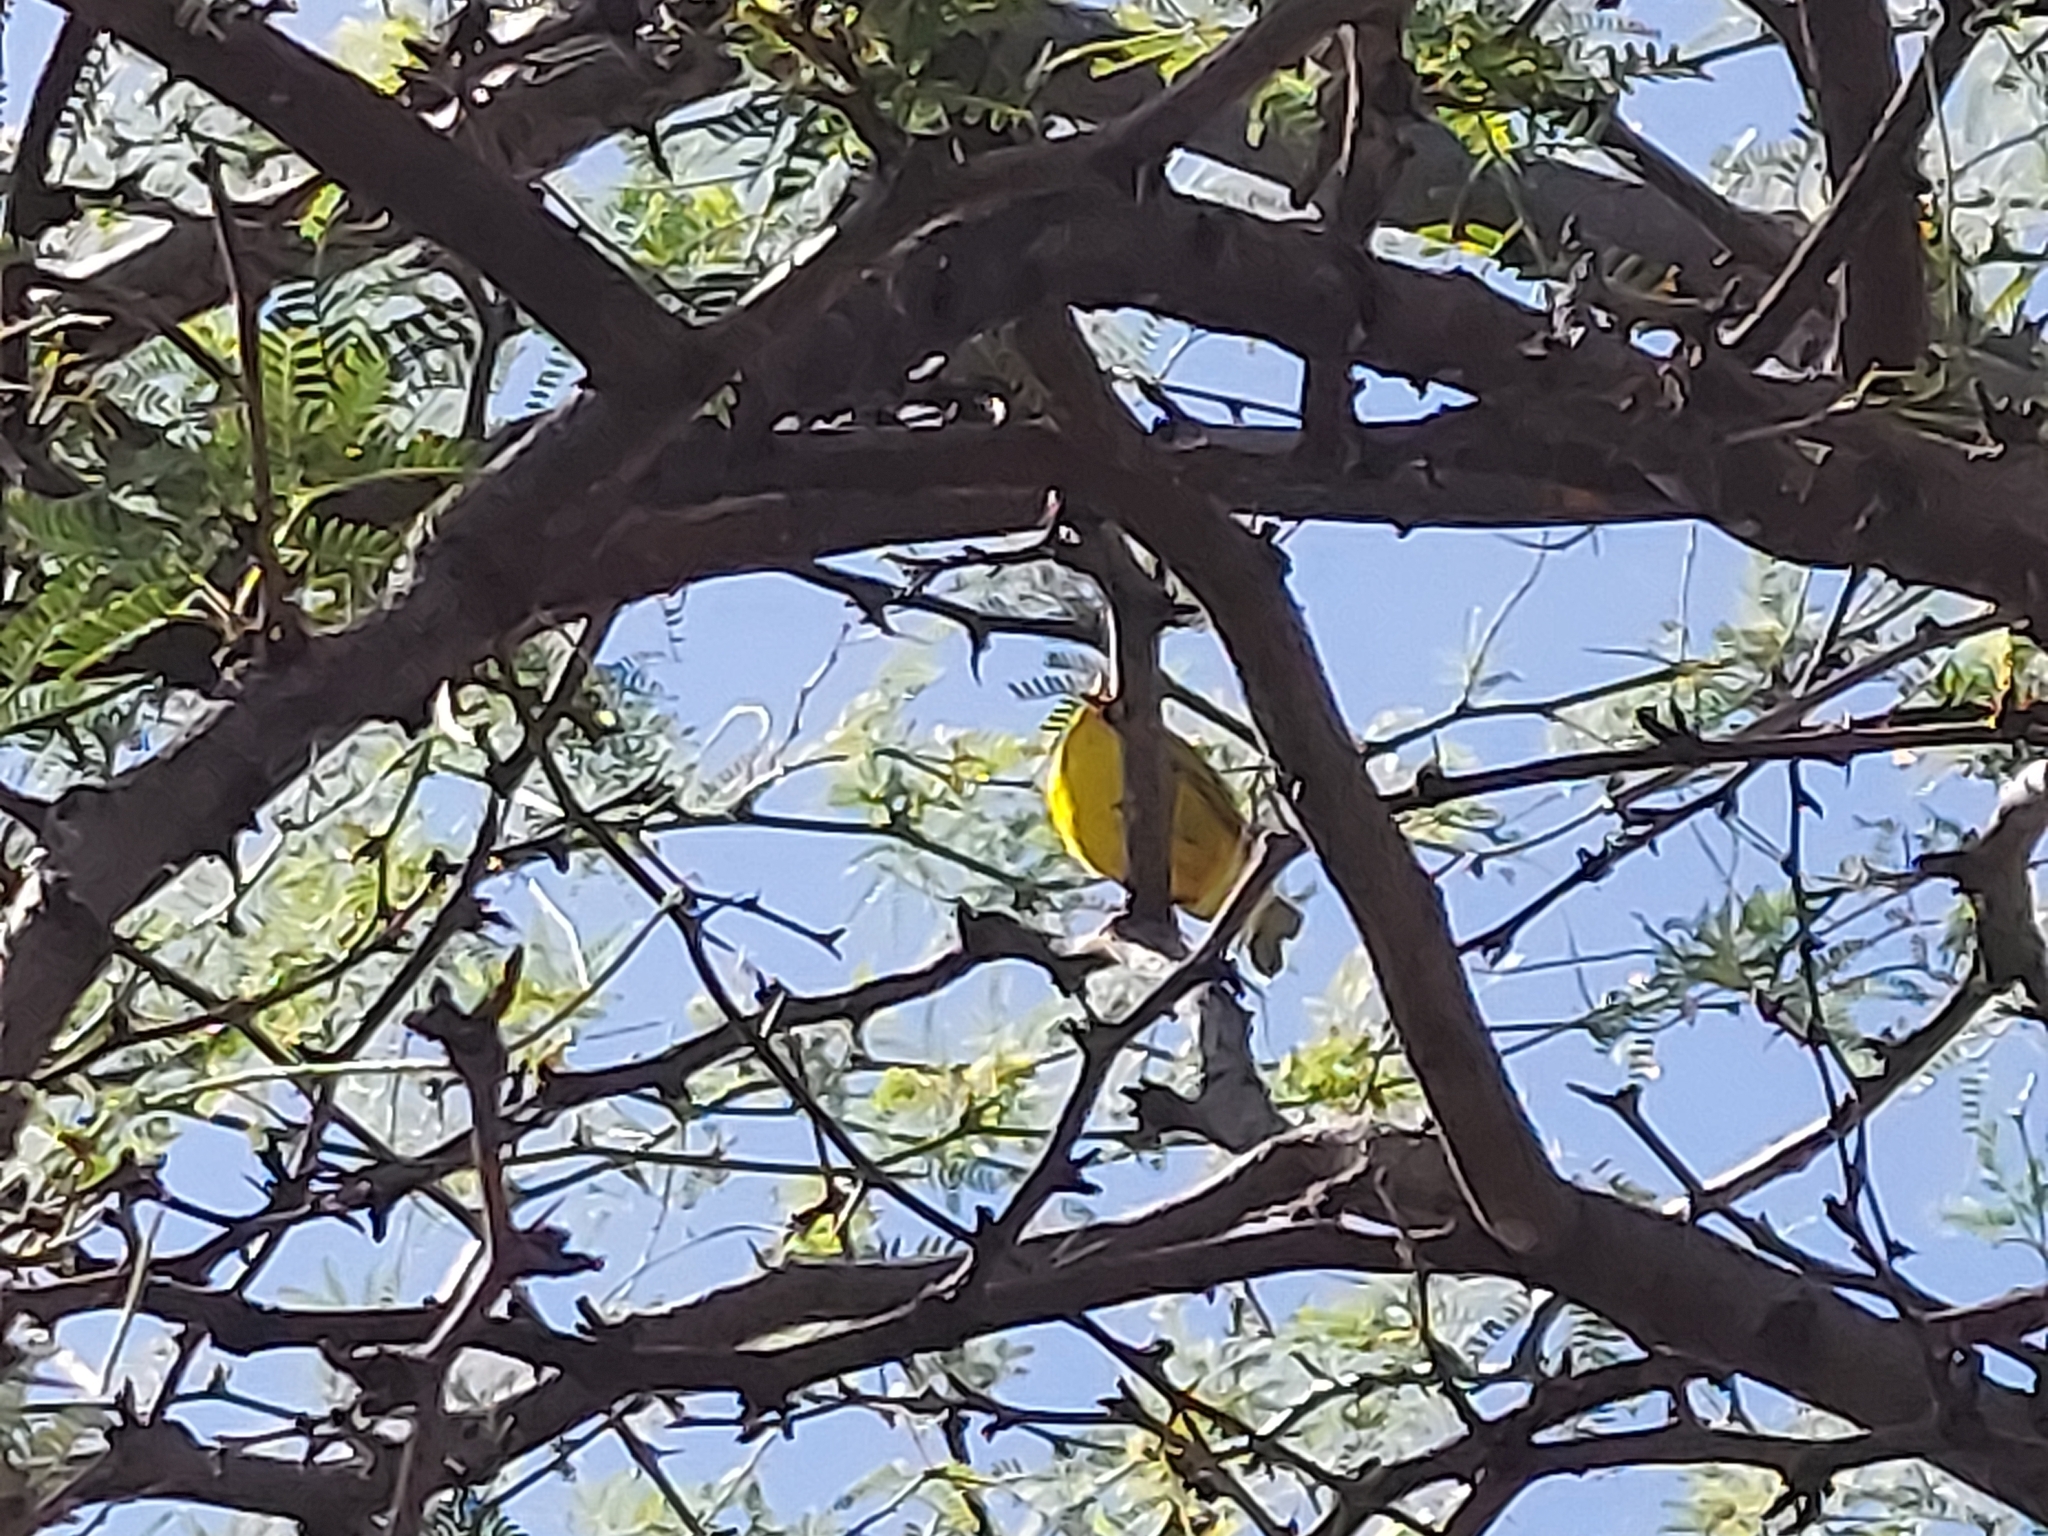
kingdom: Animalia
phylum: Chordata
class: Aves
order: Passeriformes
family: Fringillidae
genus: Crithagra
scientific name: Crithagra mozambica
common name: Yellow-fronted canary
